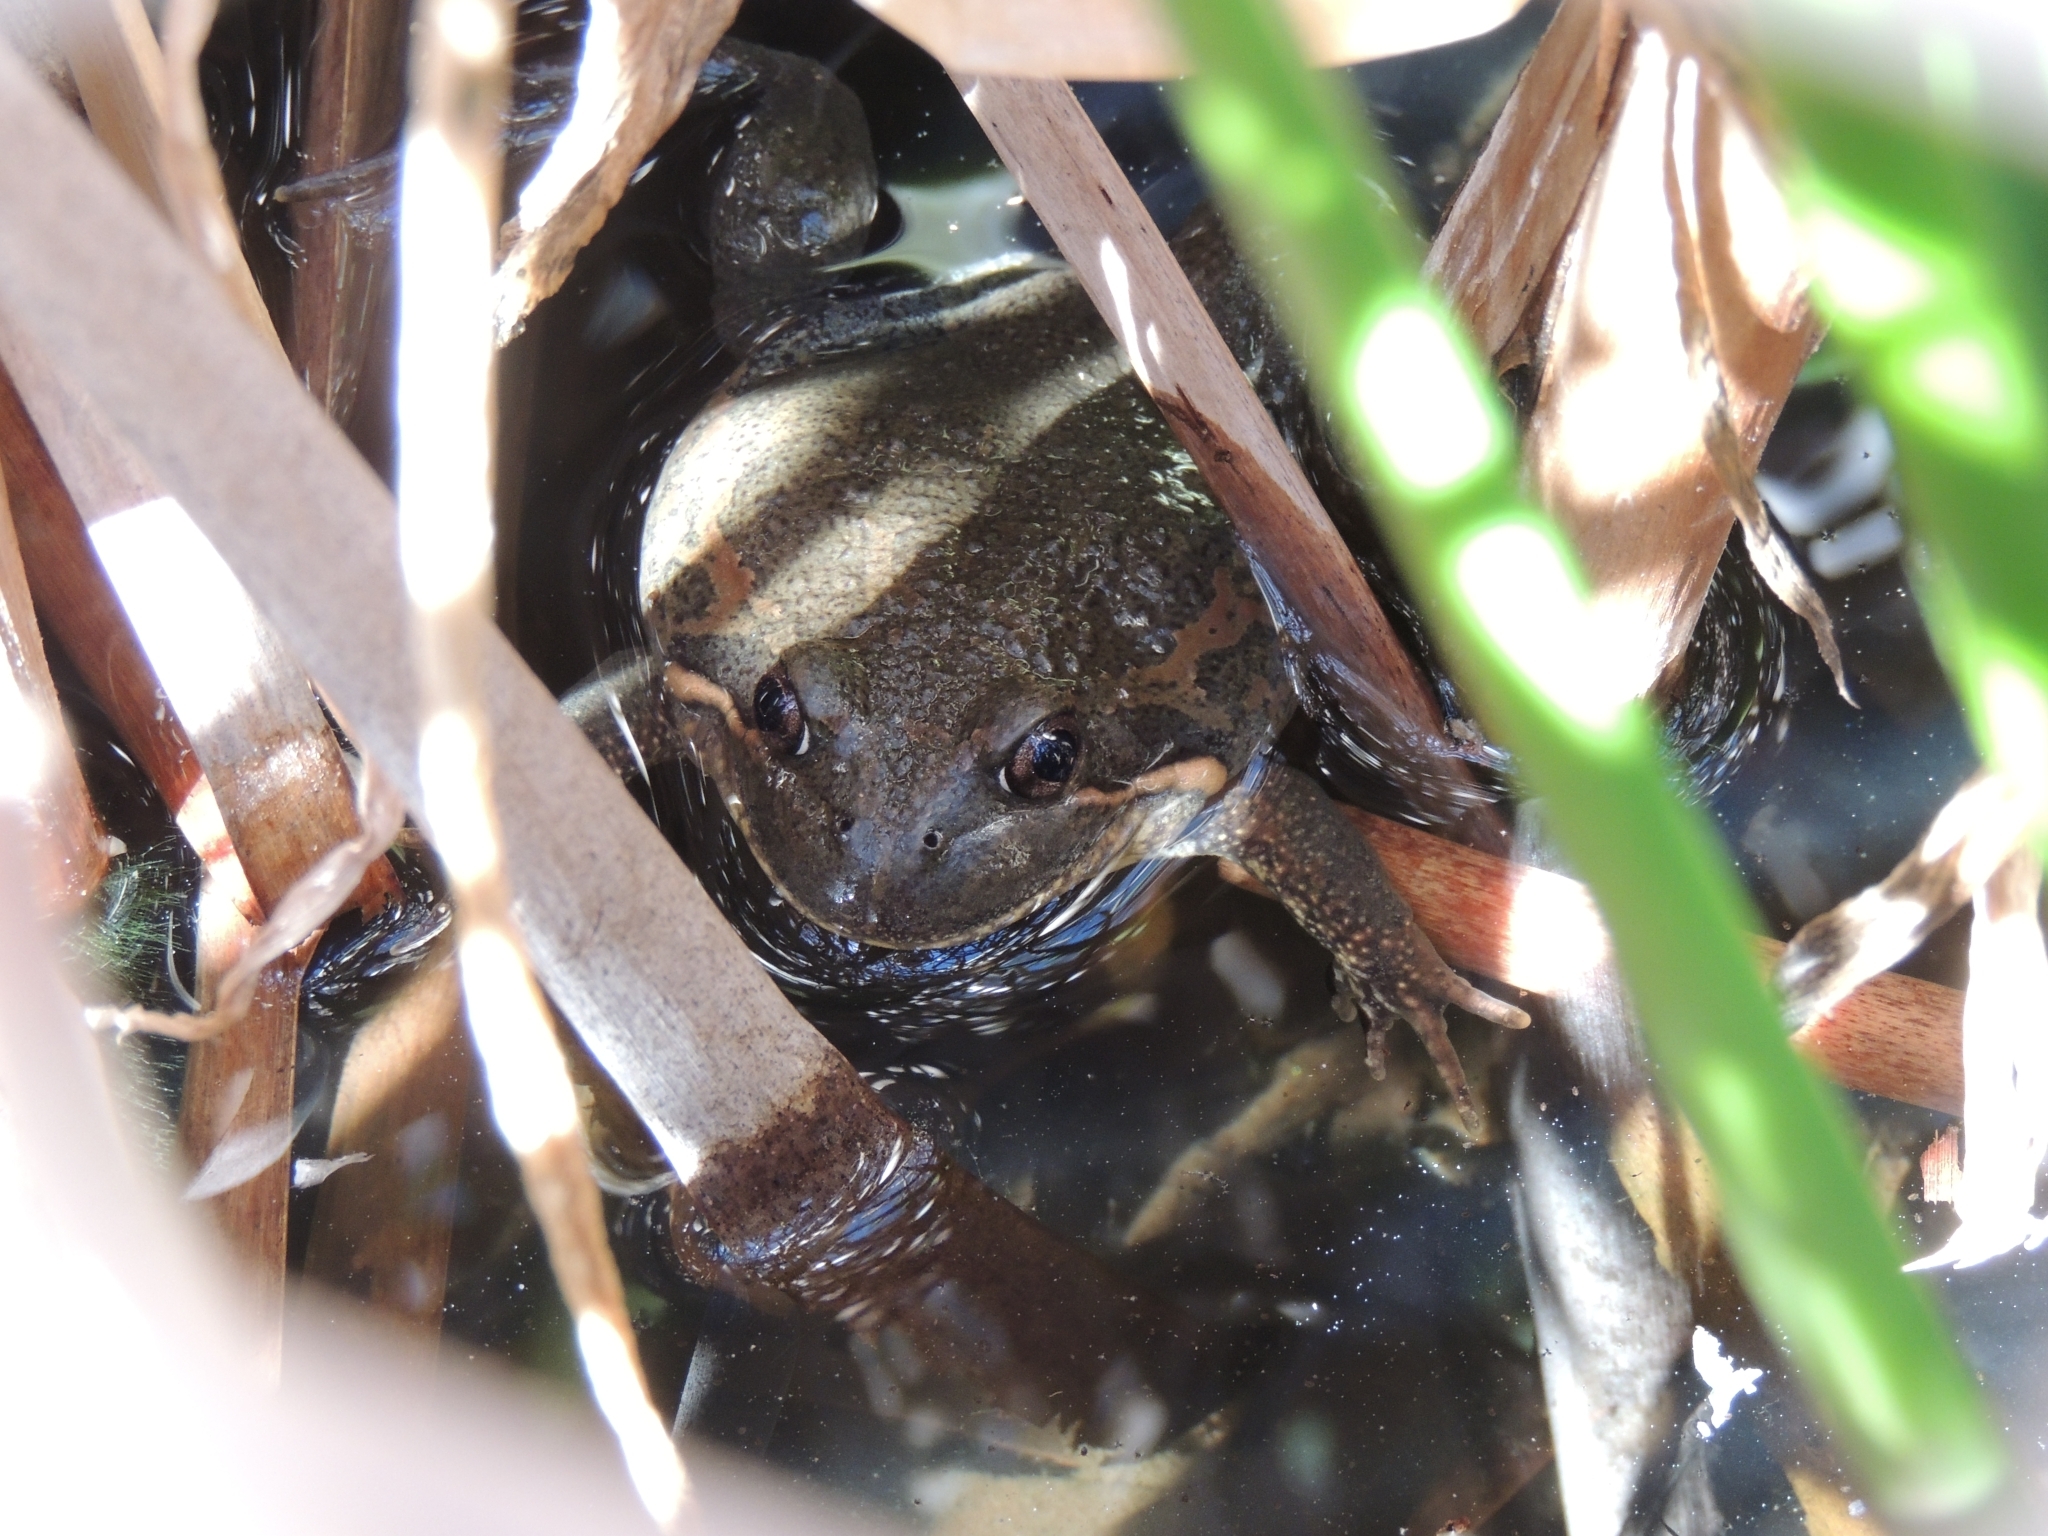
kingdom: Animalia
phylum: Chordata
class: Amphibia
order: Anura
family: Limnodynastidae
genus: Limnodynastes
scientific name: Limnodynastes dumerilii
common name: Banjo frog
